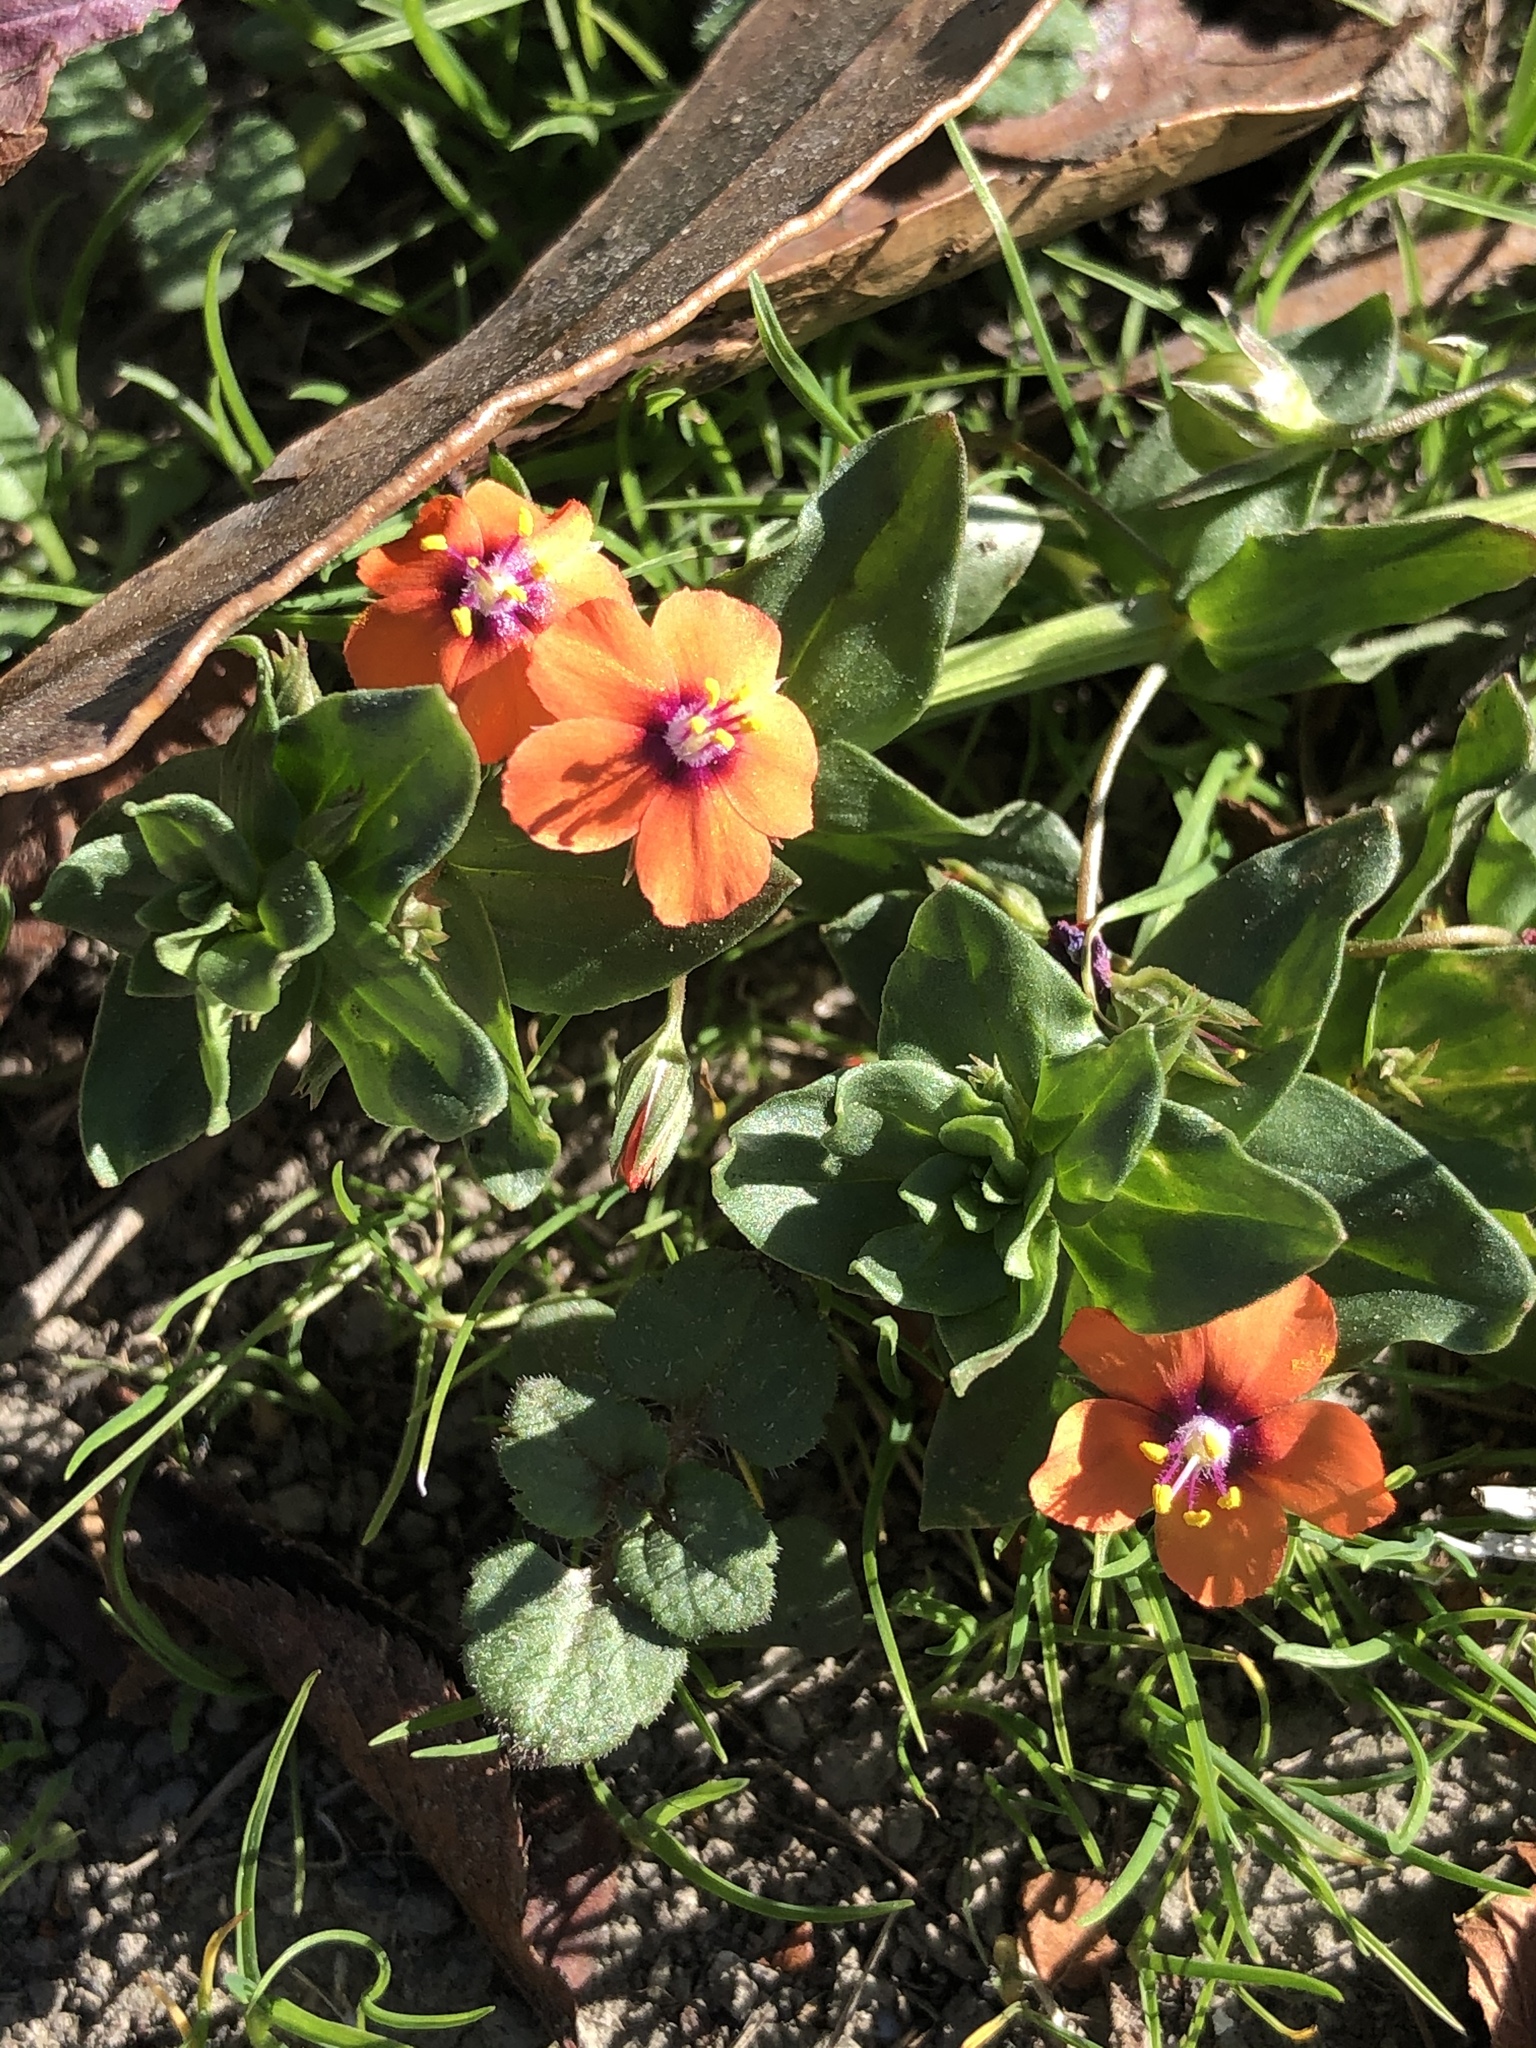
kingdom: Plantae
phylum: Tracheophyta
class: Magnoliopsida
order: Ericales
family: Primulaceae
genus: Lysimachia
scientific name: Lysimachia arvensis
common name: Scarlet pimpernel
